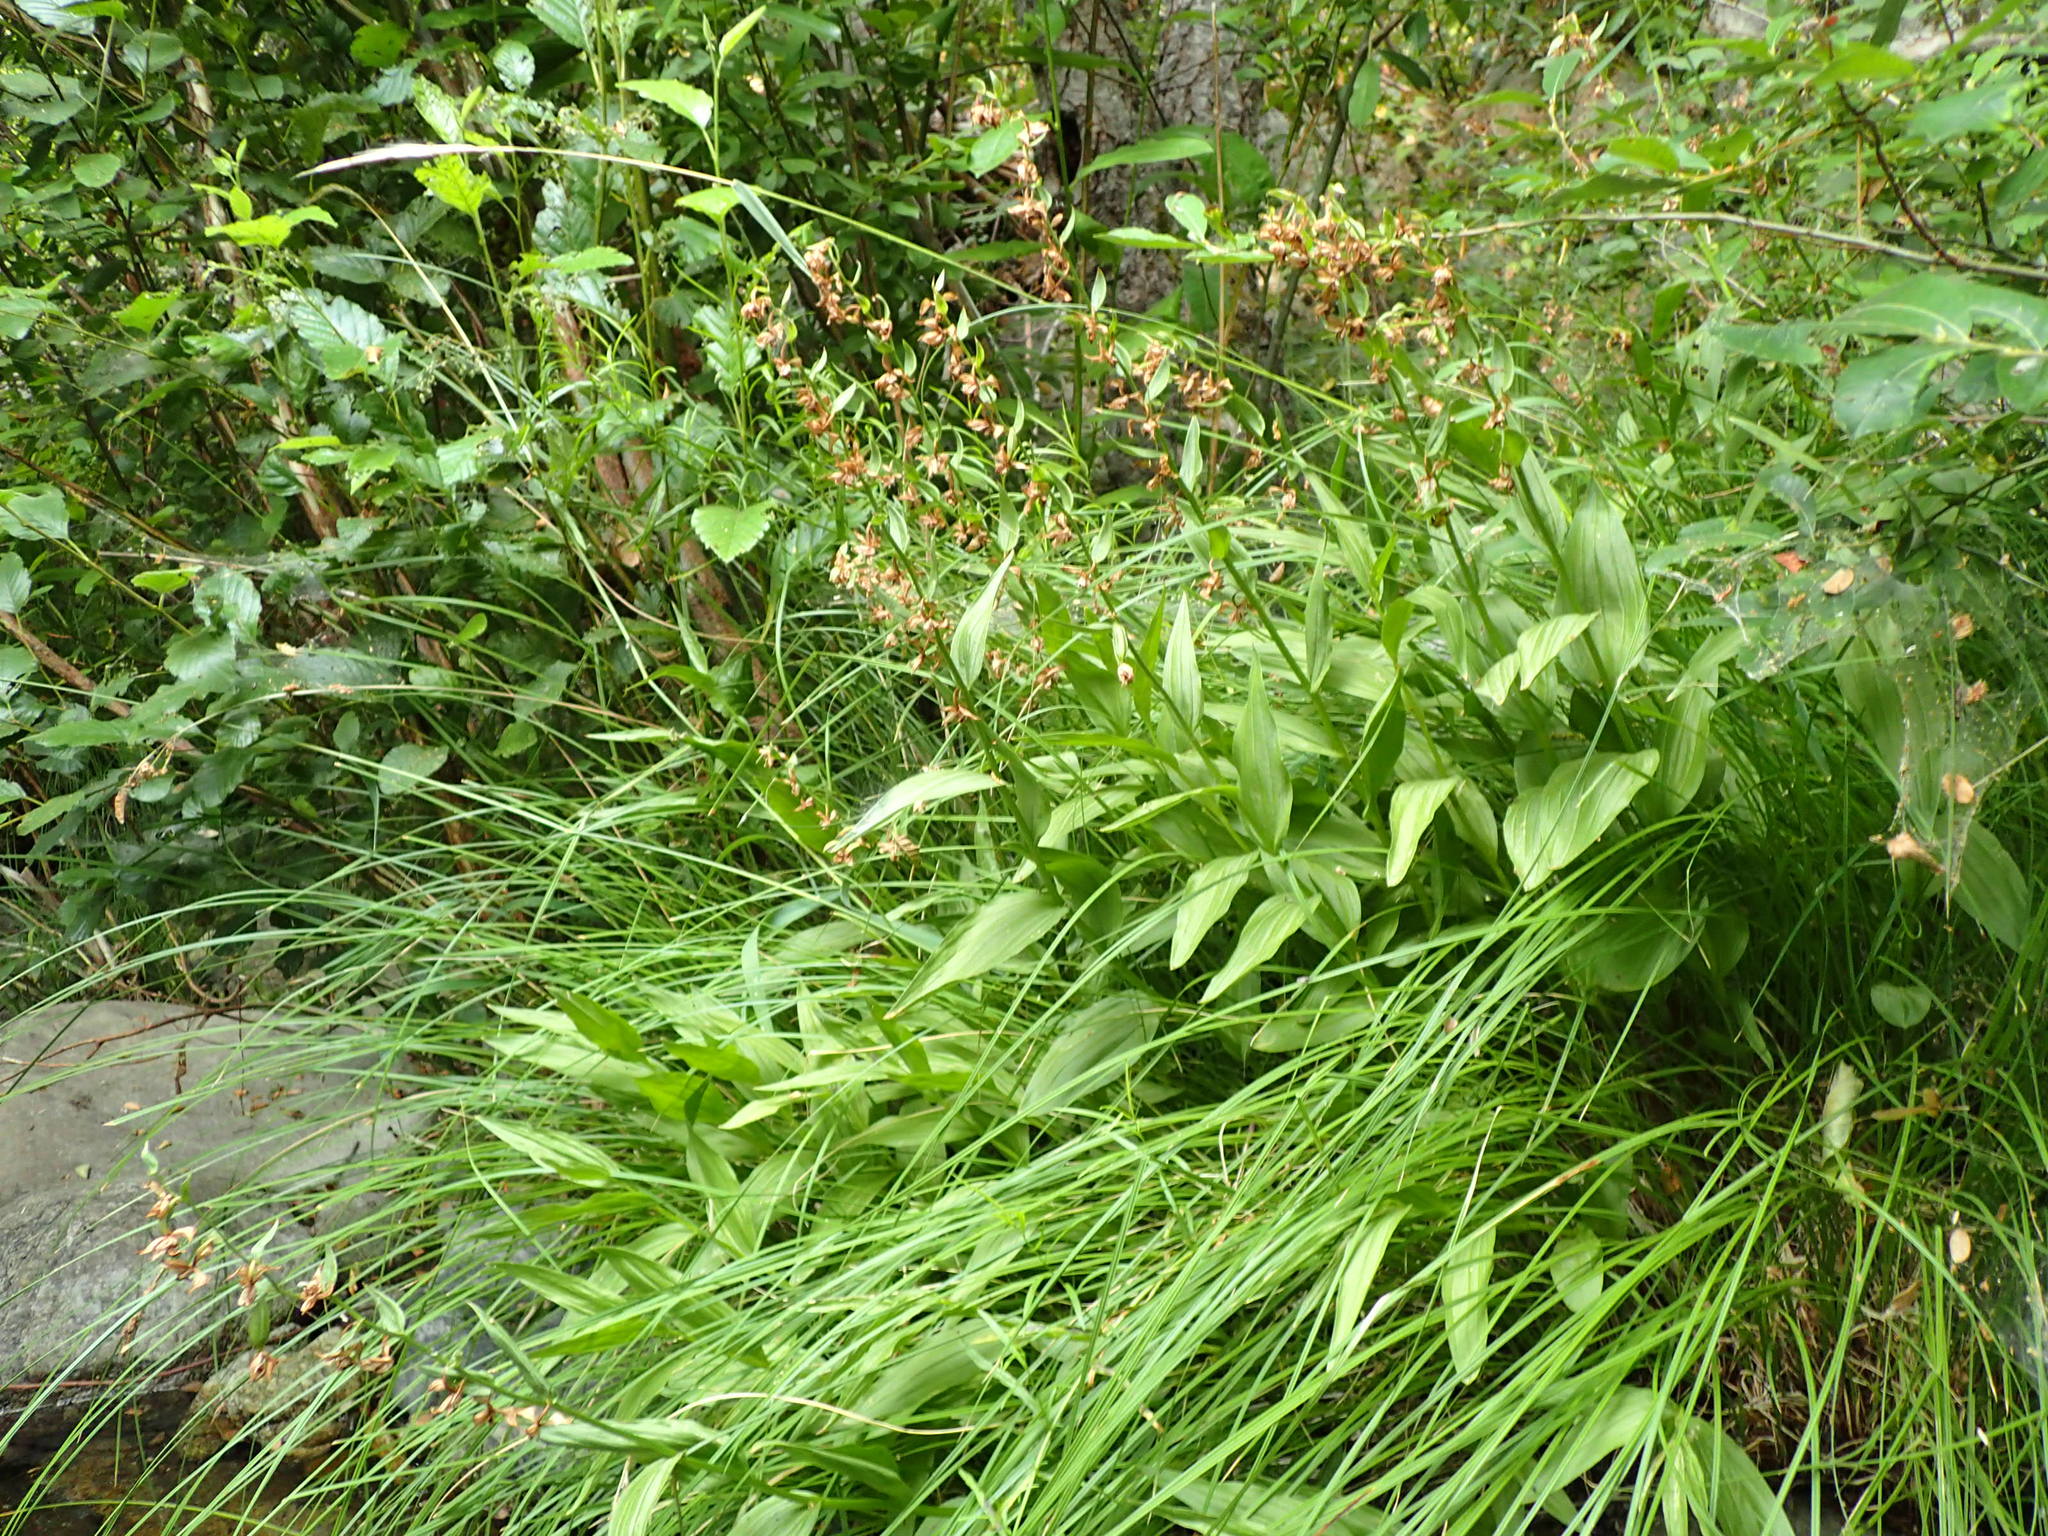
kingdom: Plantae
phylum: Tracheophyta
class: Liliopsida
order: Asparagales
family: Orchidaceae
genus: Epipactis
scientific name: Epipactis gigantea
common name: Chatterbox
